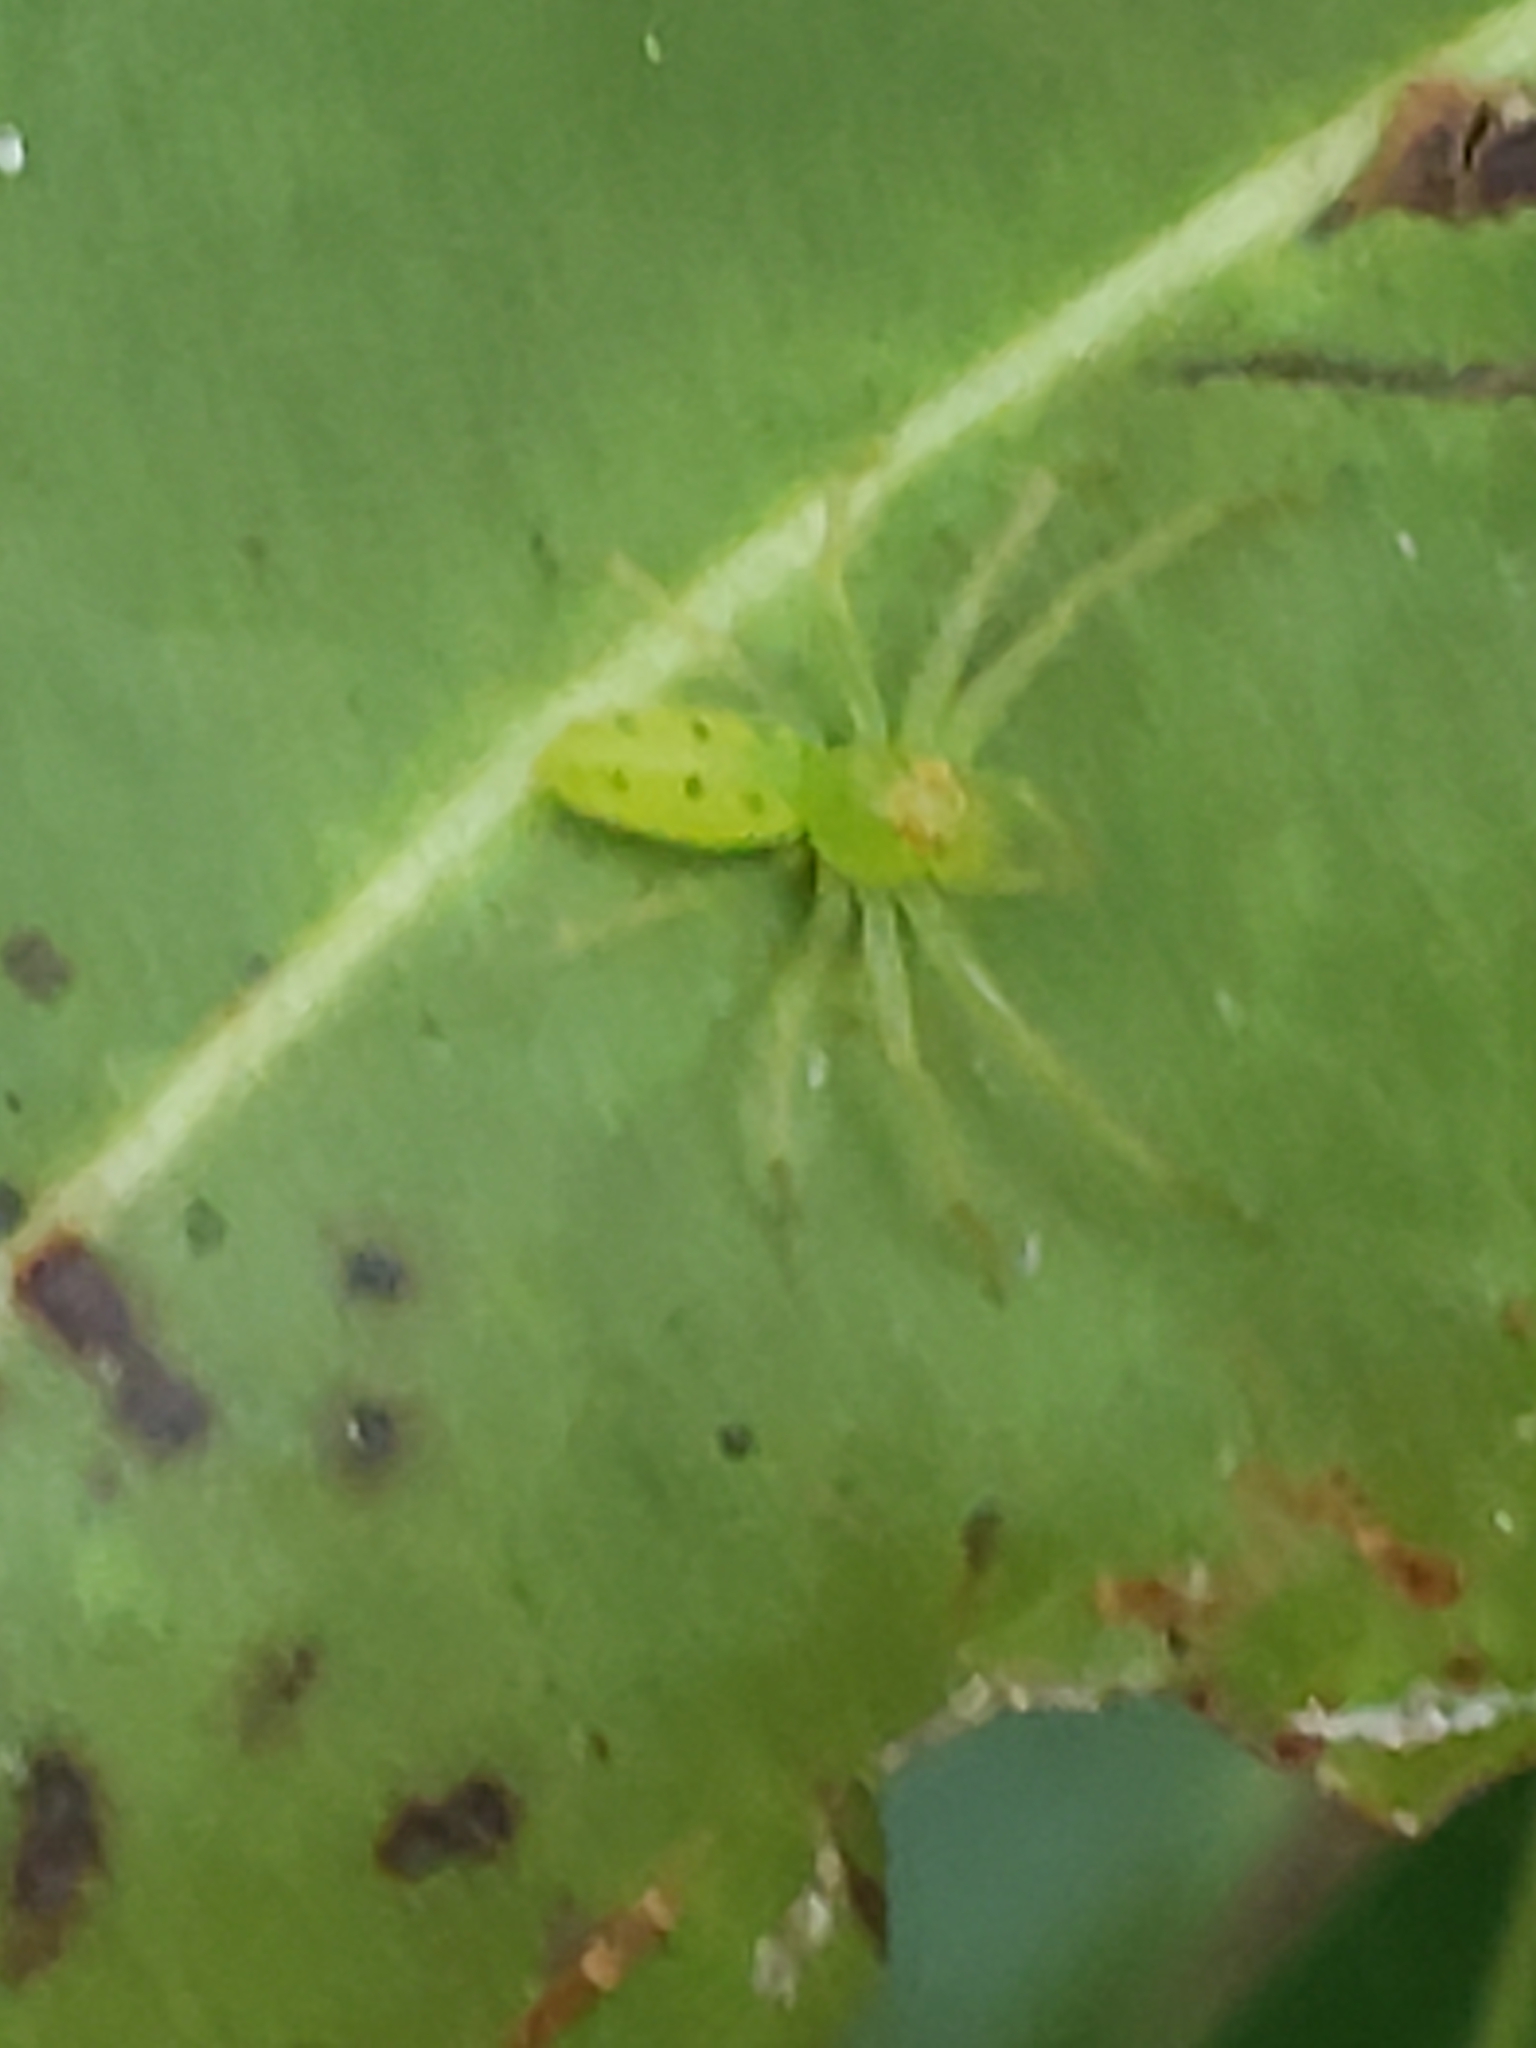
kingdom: Animalia
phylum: Arthropoda
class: Arachnida
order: Araneae
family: Salticidae
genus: Lyssomanes
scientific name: Lyssomanes viridis
